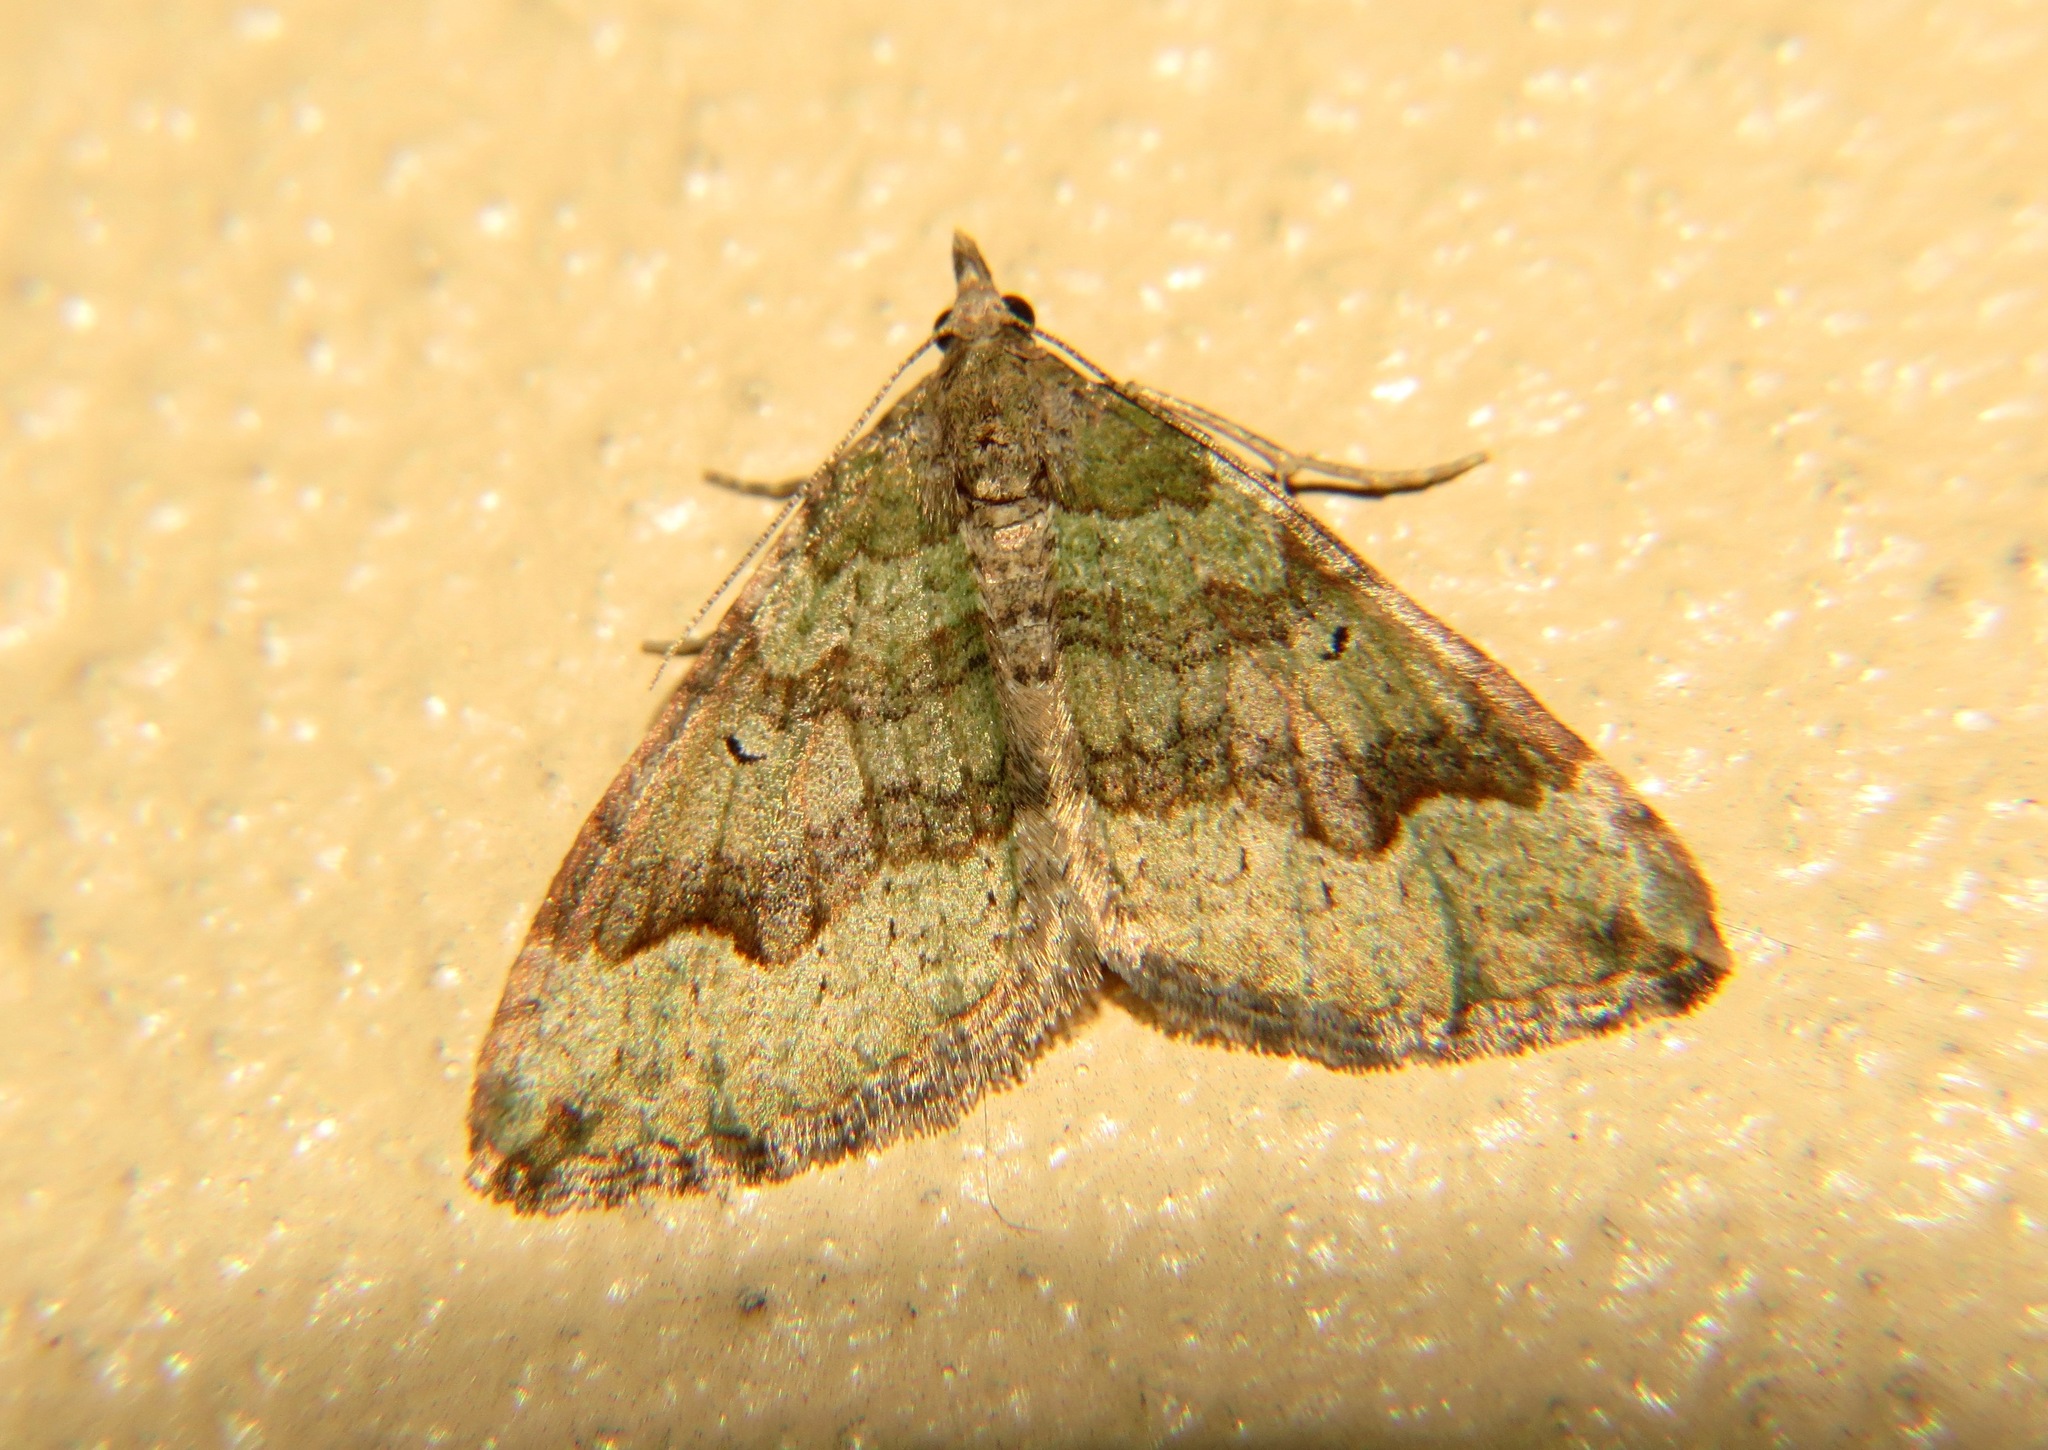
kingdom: Animalia
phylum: Arthropoda
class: Insecta
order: Lepidoptera
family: Geometridae
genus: Epyaxa
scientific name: Epyaxa rosearia
